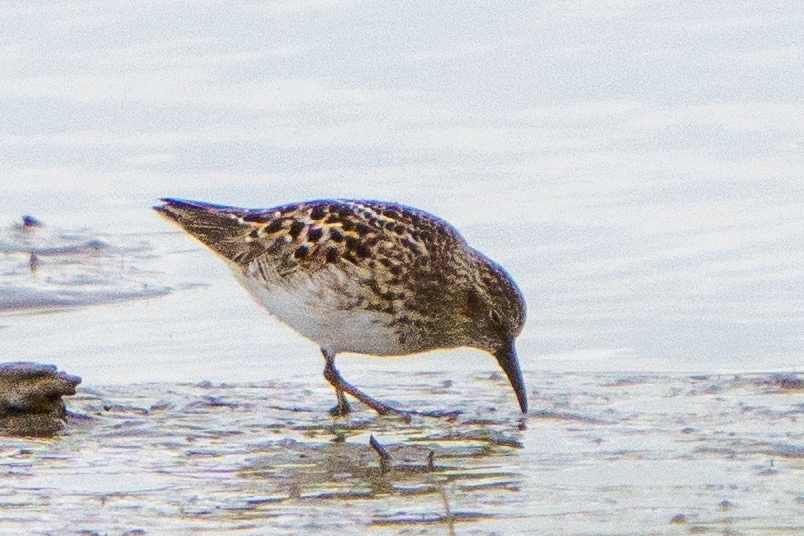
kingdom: Animalia
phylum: Chordata
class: Aves
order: Charadriiformes
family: Scolopacidae
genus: Calidris
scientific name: Calidris minutilla
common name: Least sandpiper
